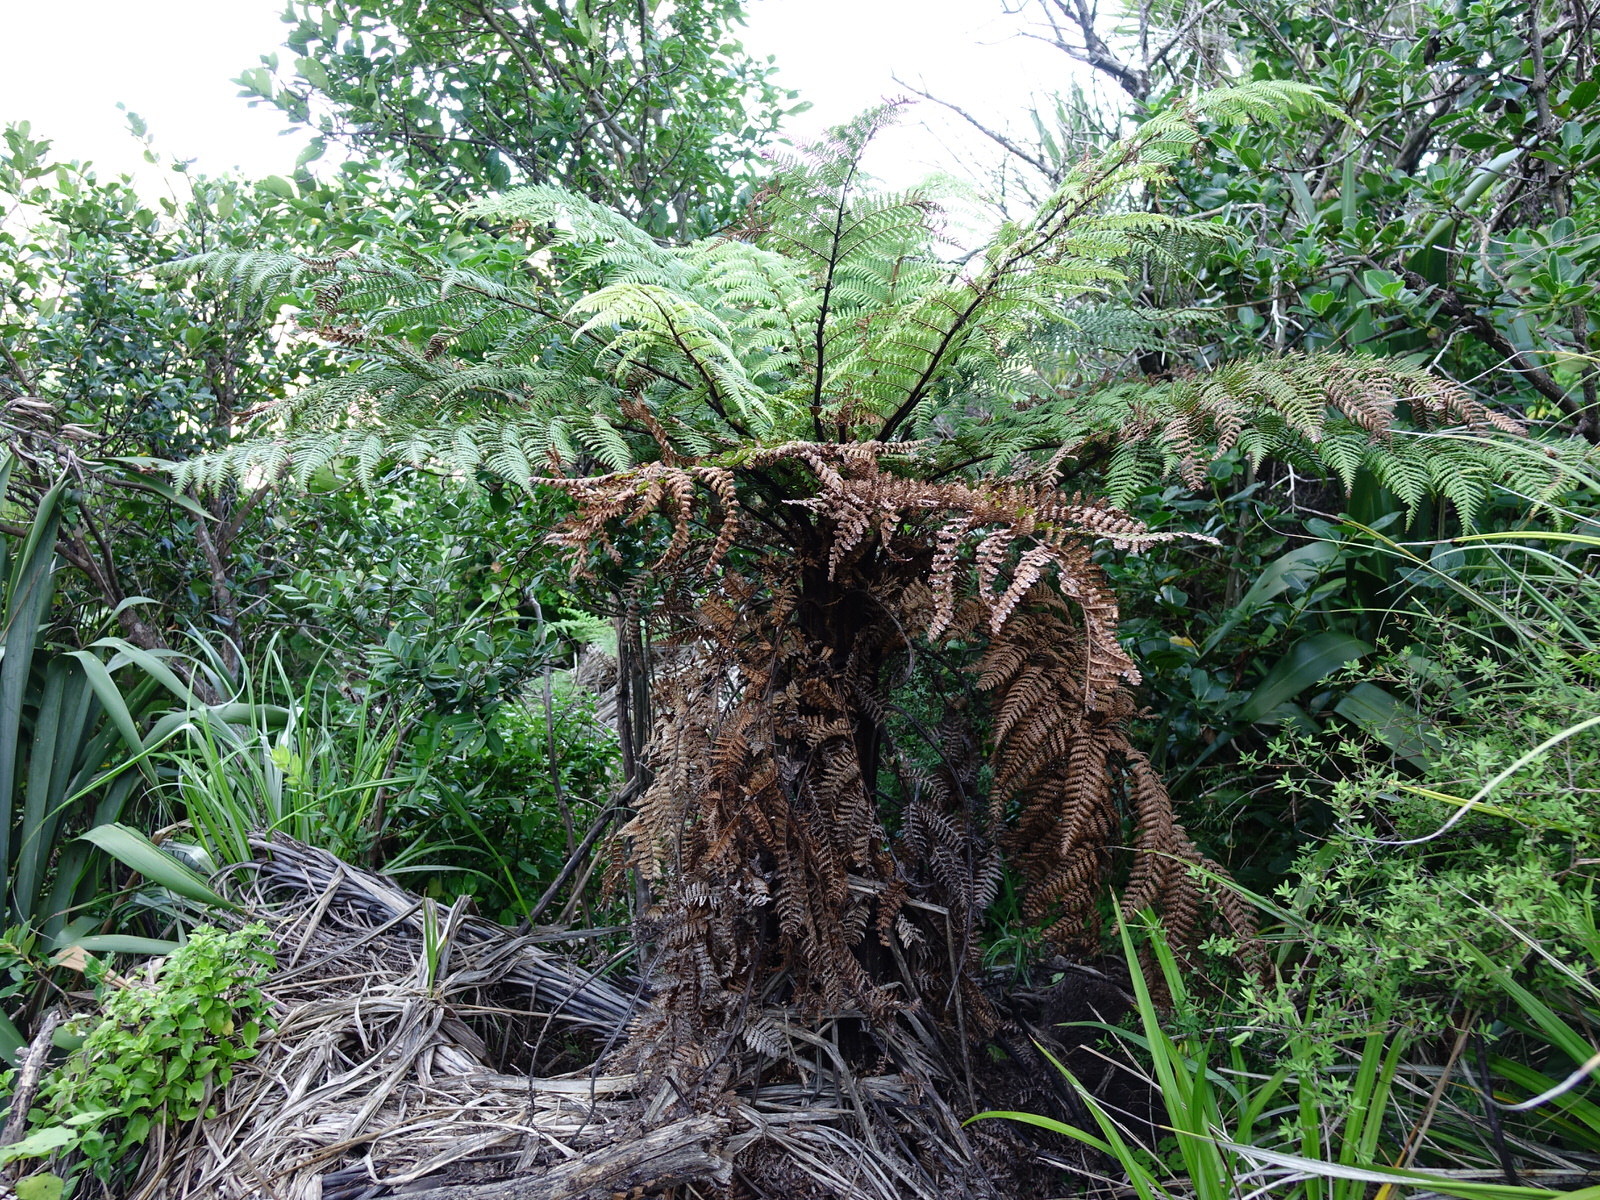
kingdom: Plantae
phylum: Tracheophyta
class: Polypodiopsida
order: Cyatheales
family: Dicksoniaceae
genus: Dicksonia
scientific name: Dicksonia squarrosa
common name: Hard treefern
